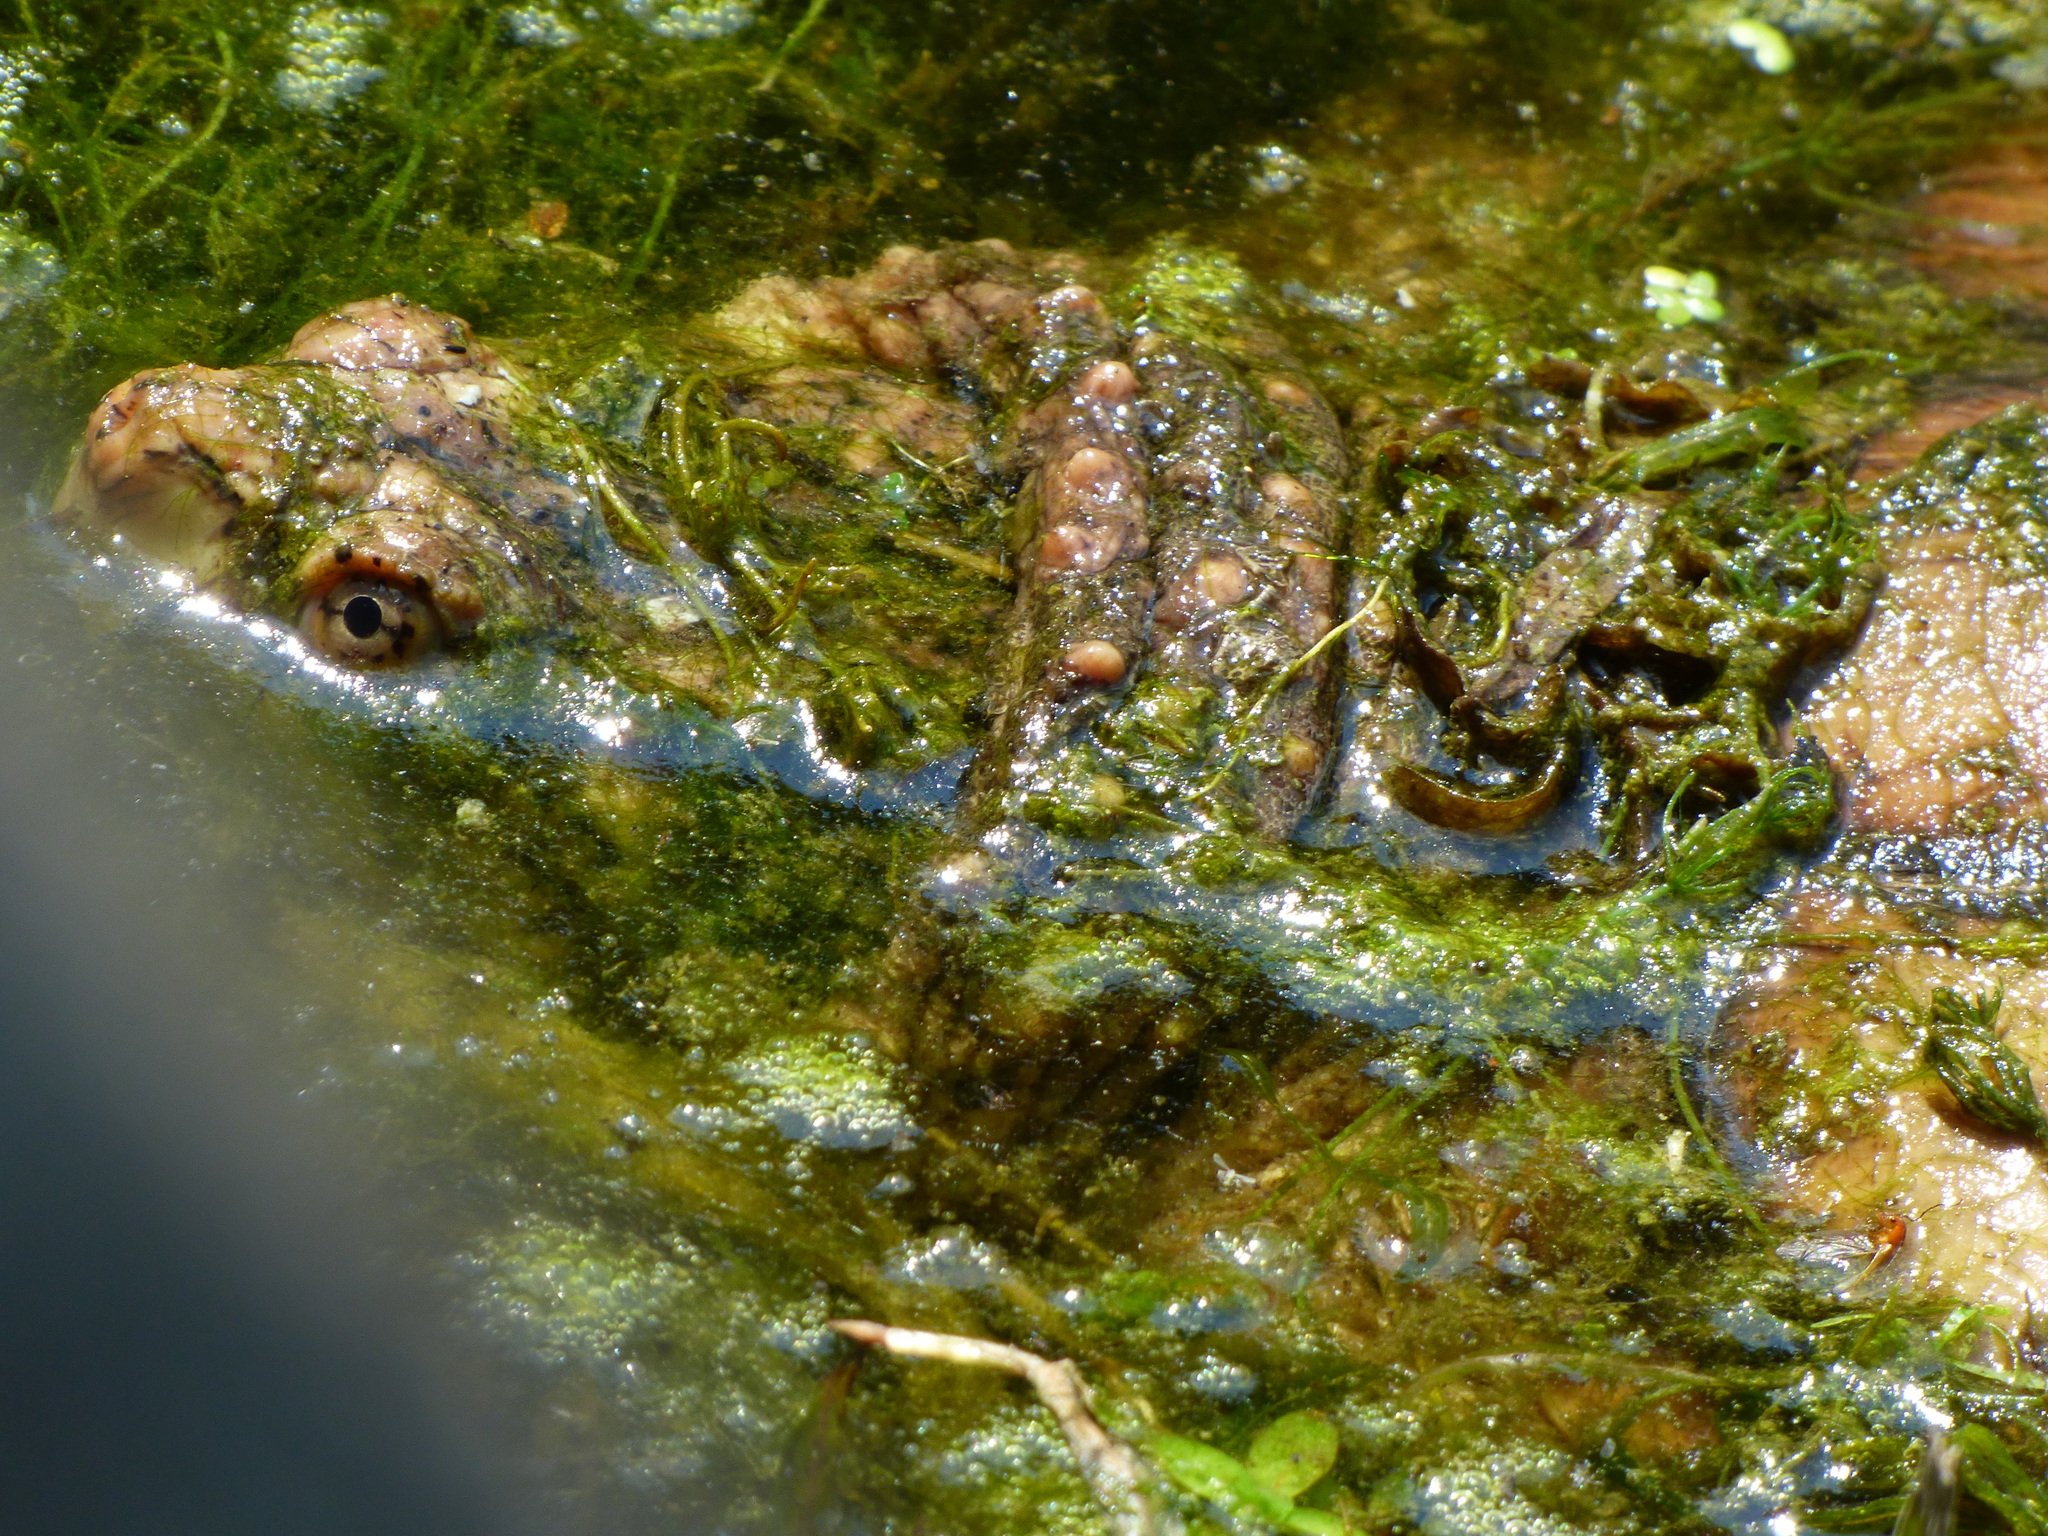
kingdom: Animalia
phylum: Chordata
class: Testudines
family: Chelydridae
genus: Chelydra
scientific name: Chelydra serpentina
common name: Common snapping turtle
